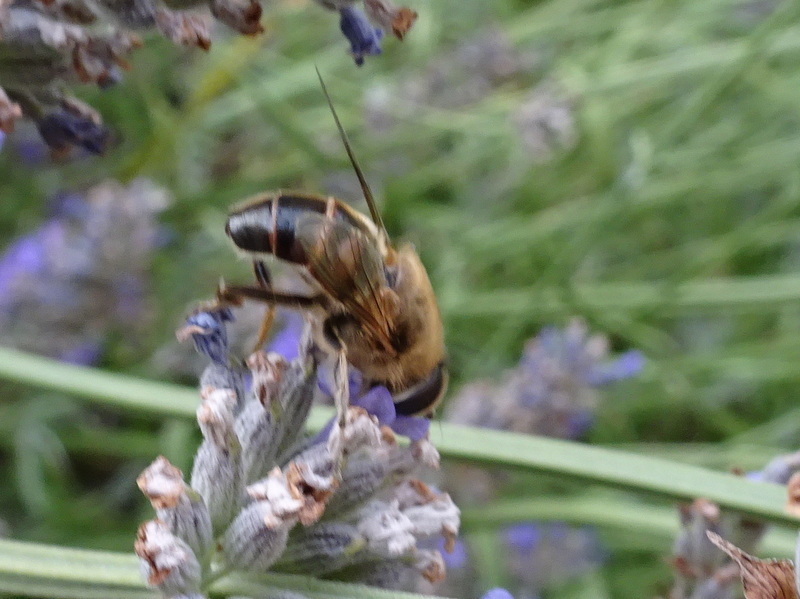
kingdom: Animalia
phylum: Arthropoda
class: Insecta
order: Diptera
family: Syrphidae
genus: Eristalis
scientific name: Eristalis tenax
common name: Drone fly
